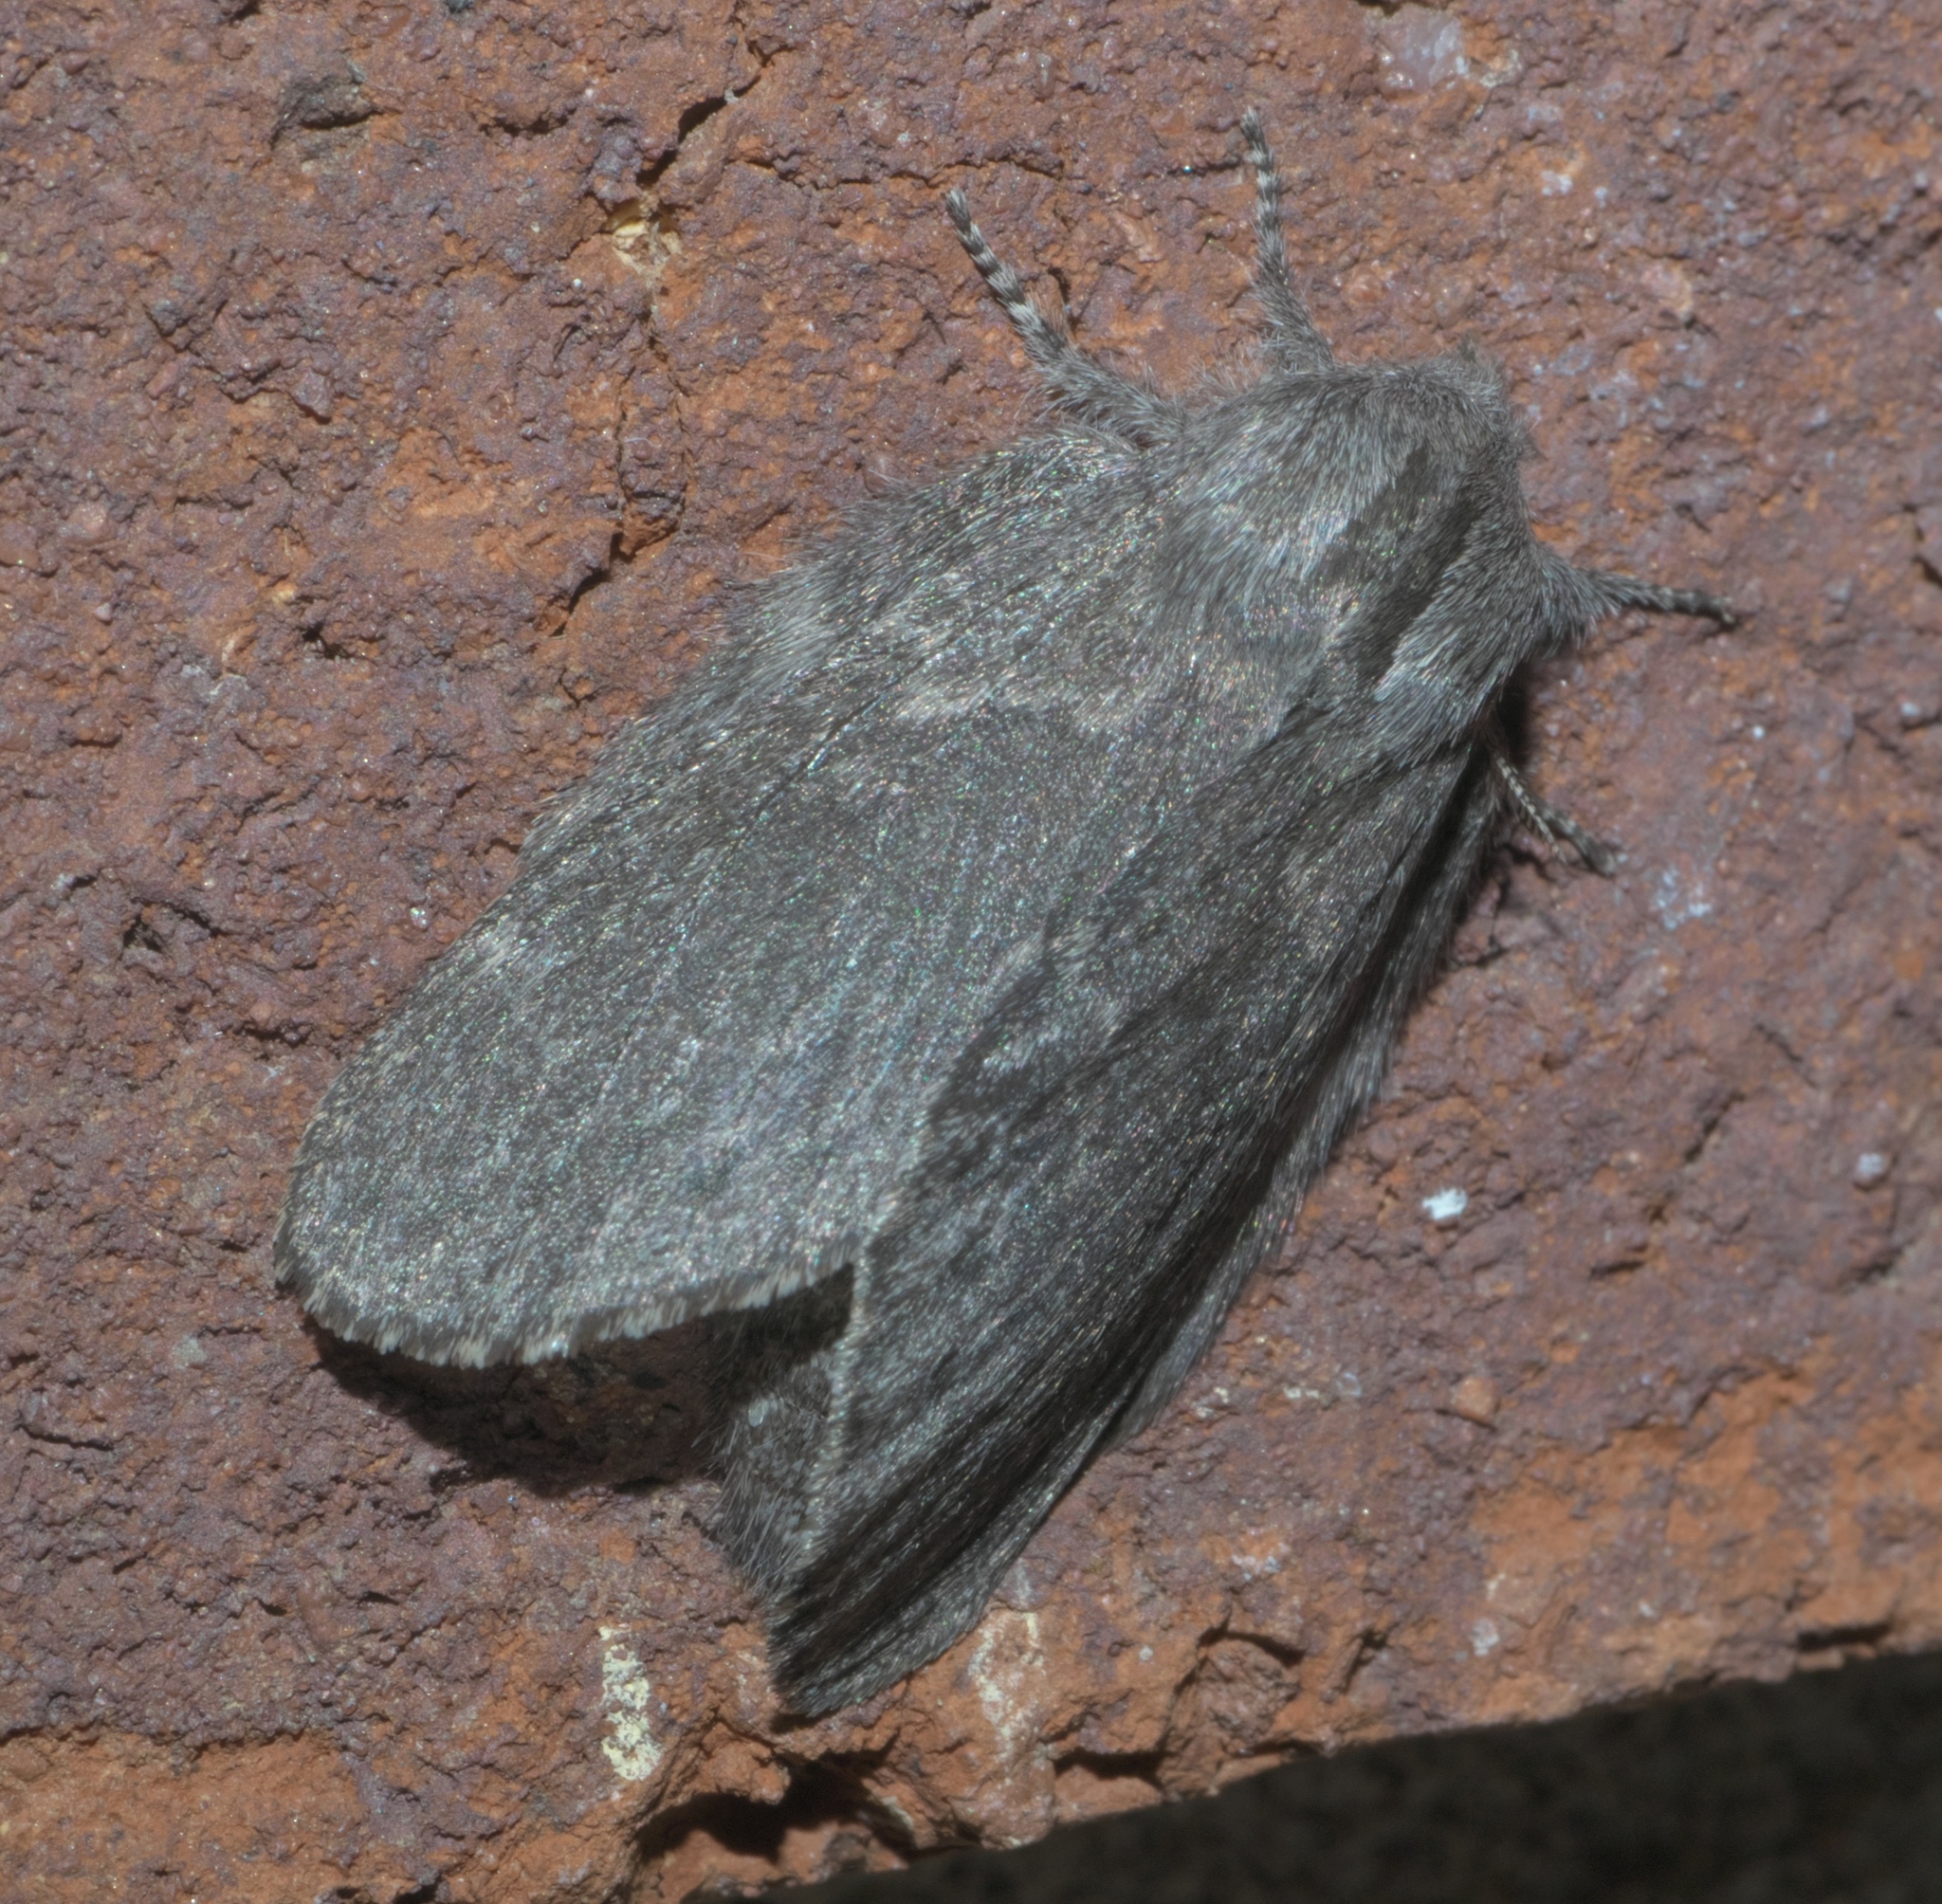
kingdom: Animalia
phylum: Arthropoda
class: Insecta
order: Lepidoptera
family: Lasiocampidae
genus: Heteropacha
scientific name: Heteropacha rileyana
